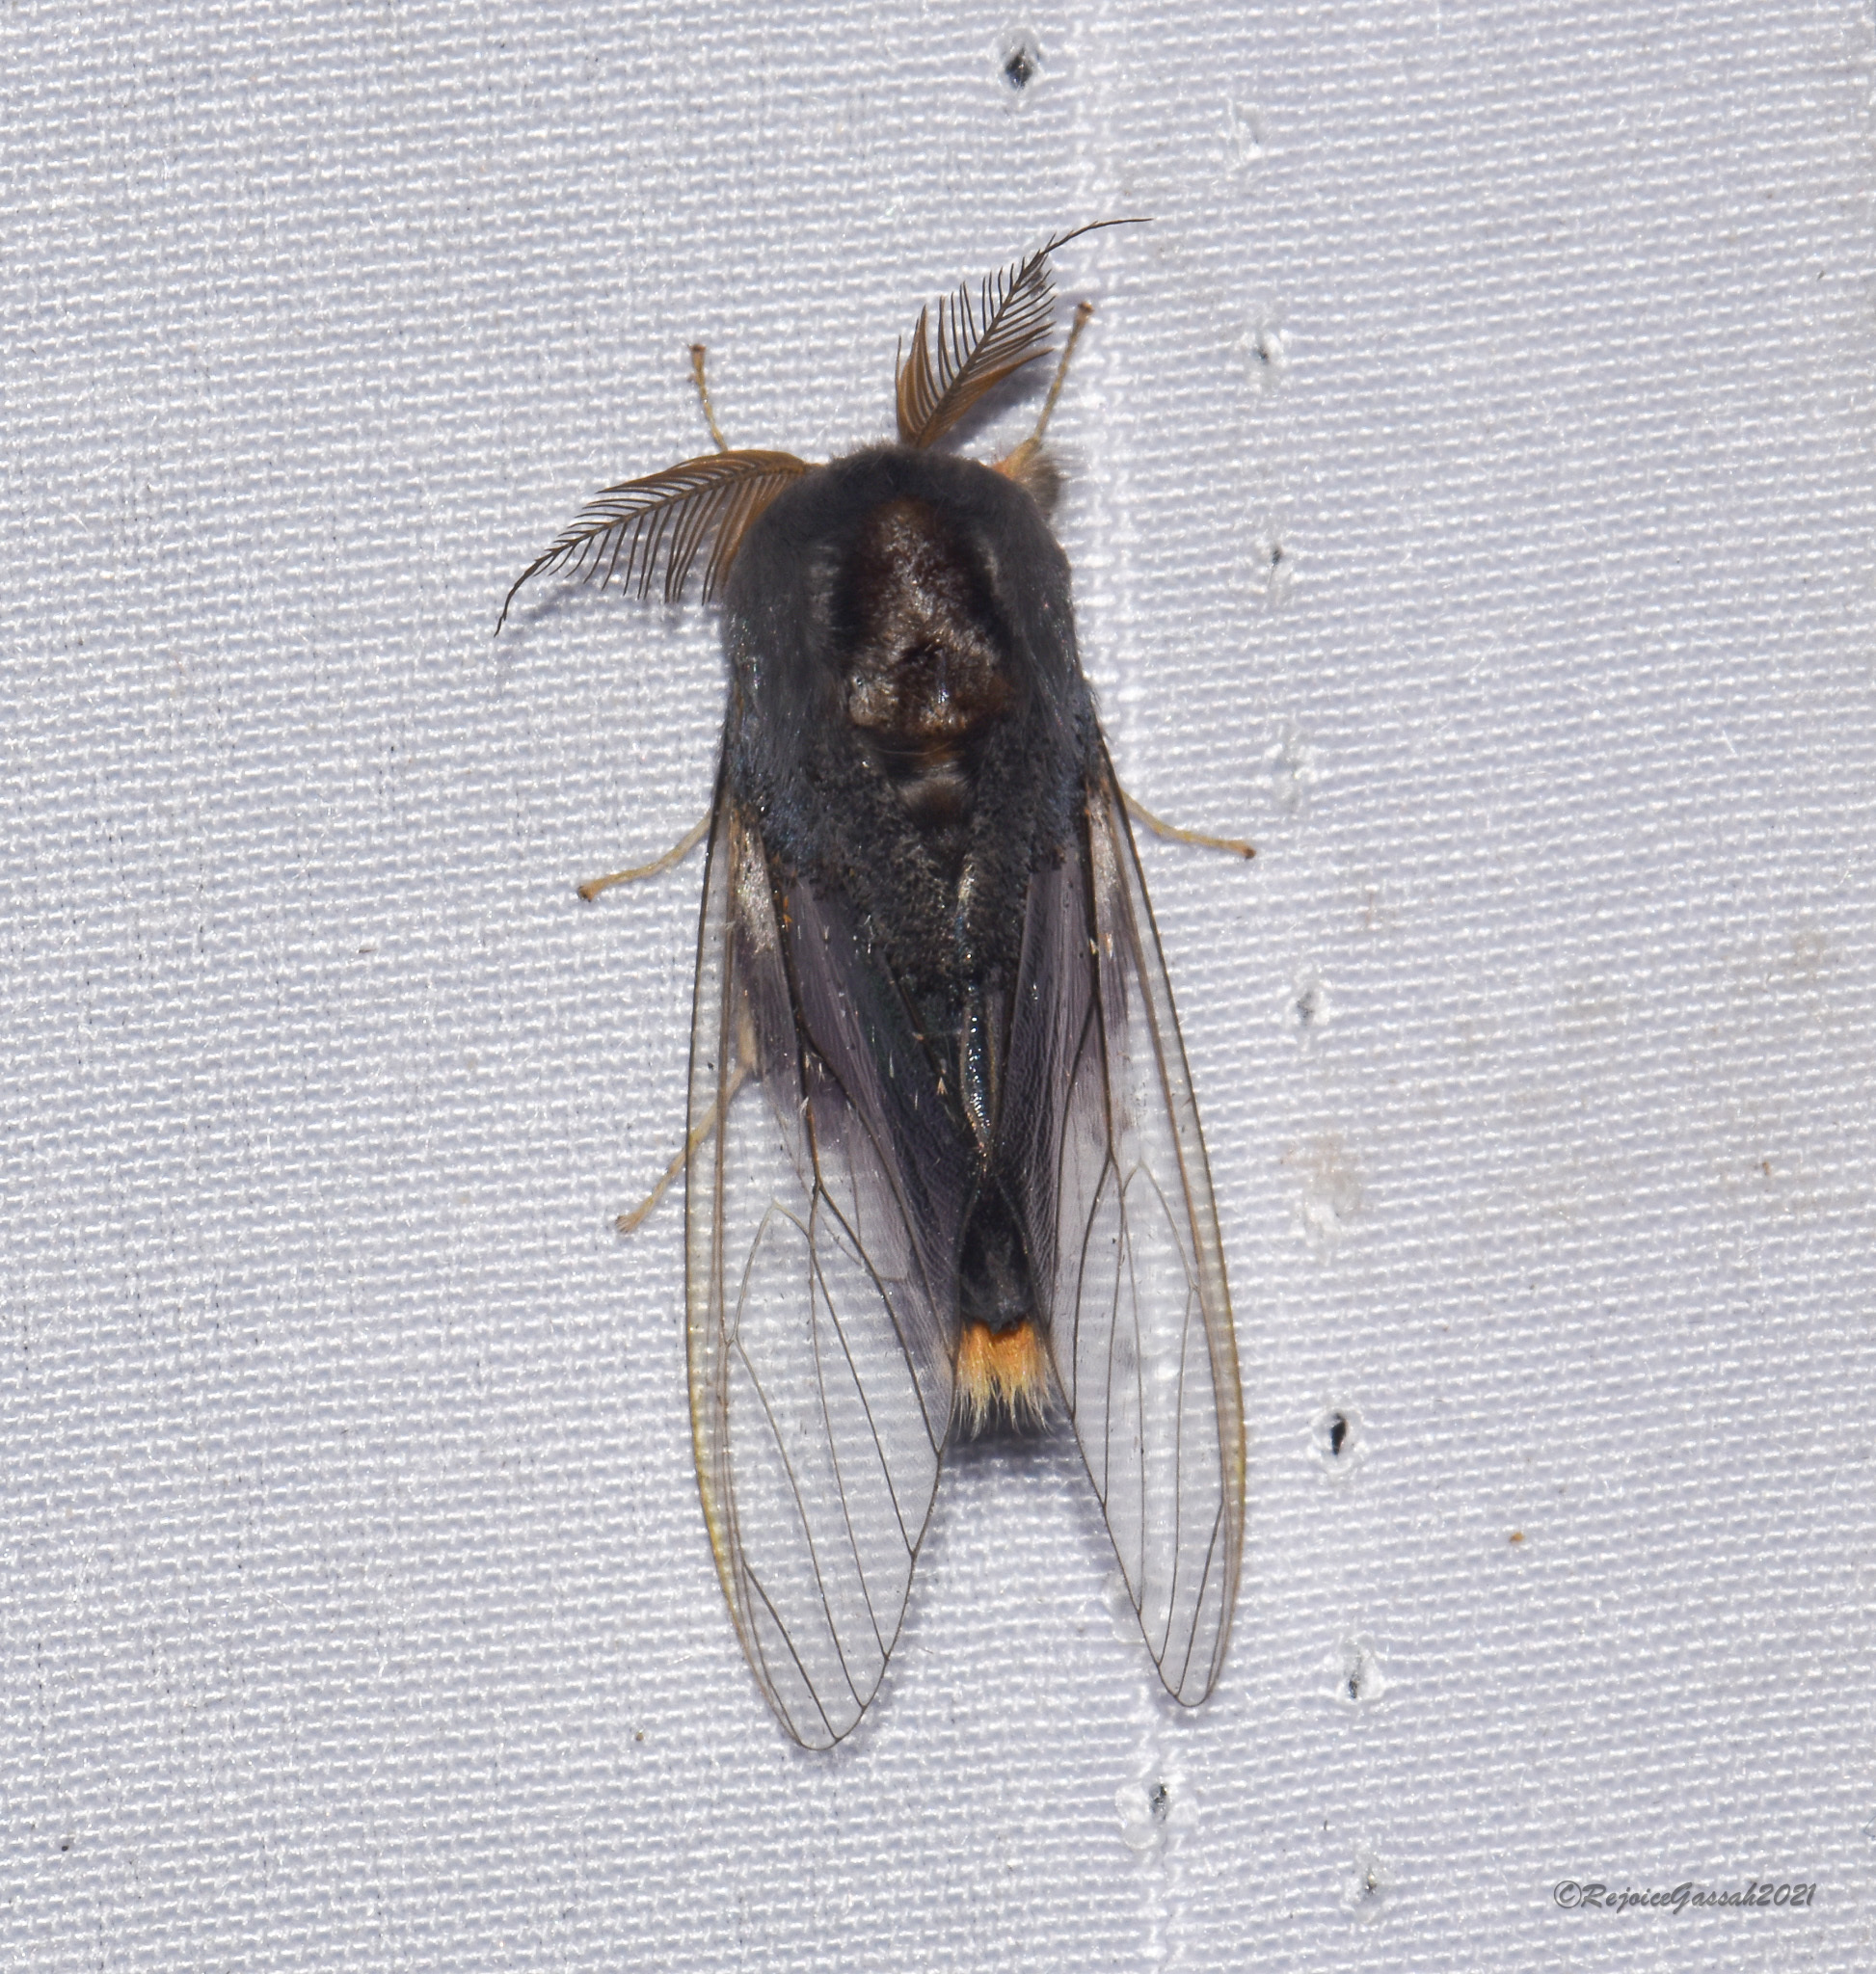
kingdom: Animalia
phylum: Arthropoda
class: Insecta
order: Lepidoptera
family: Erebidae
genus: Perina
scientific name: Perina nuda
